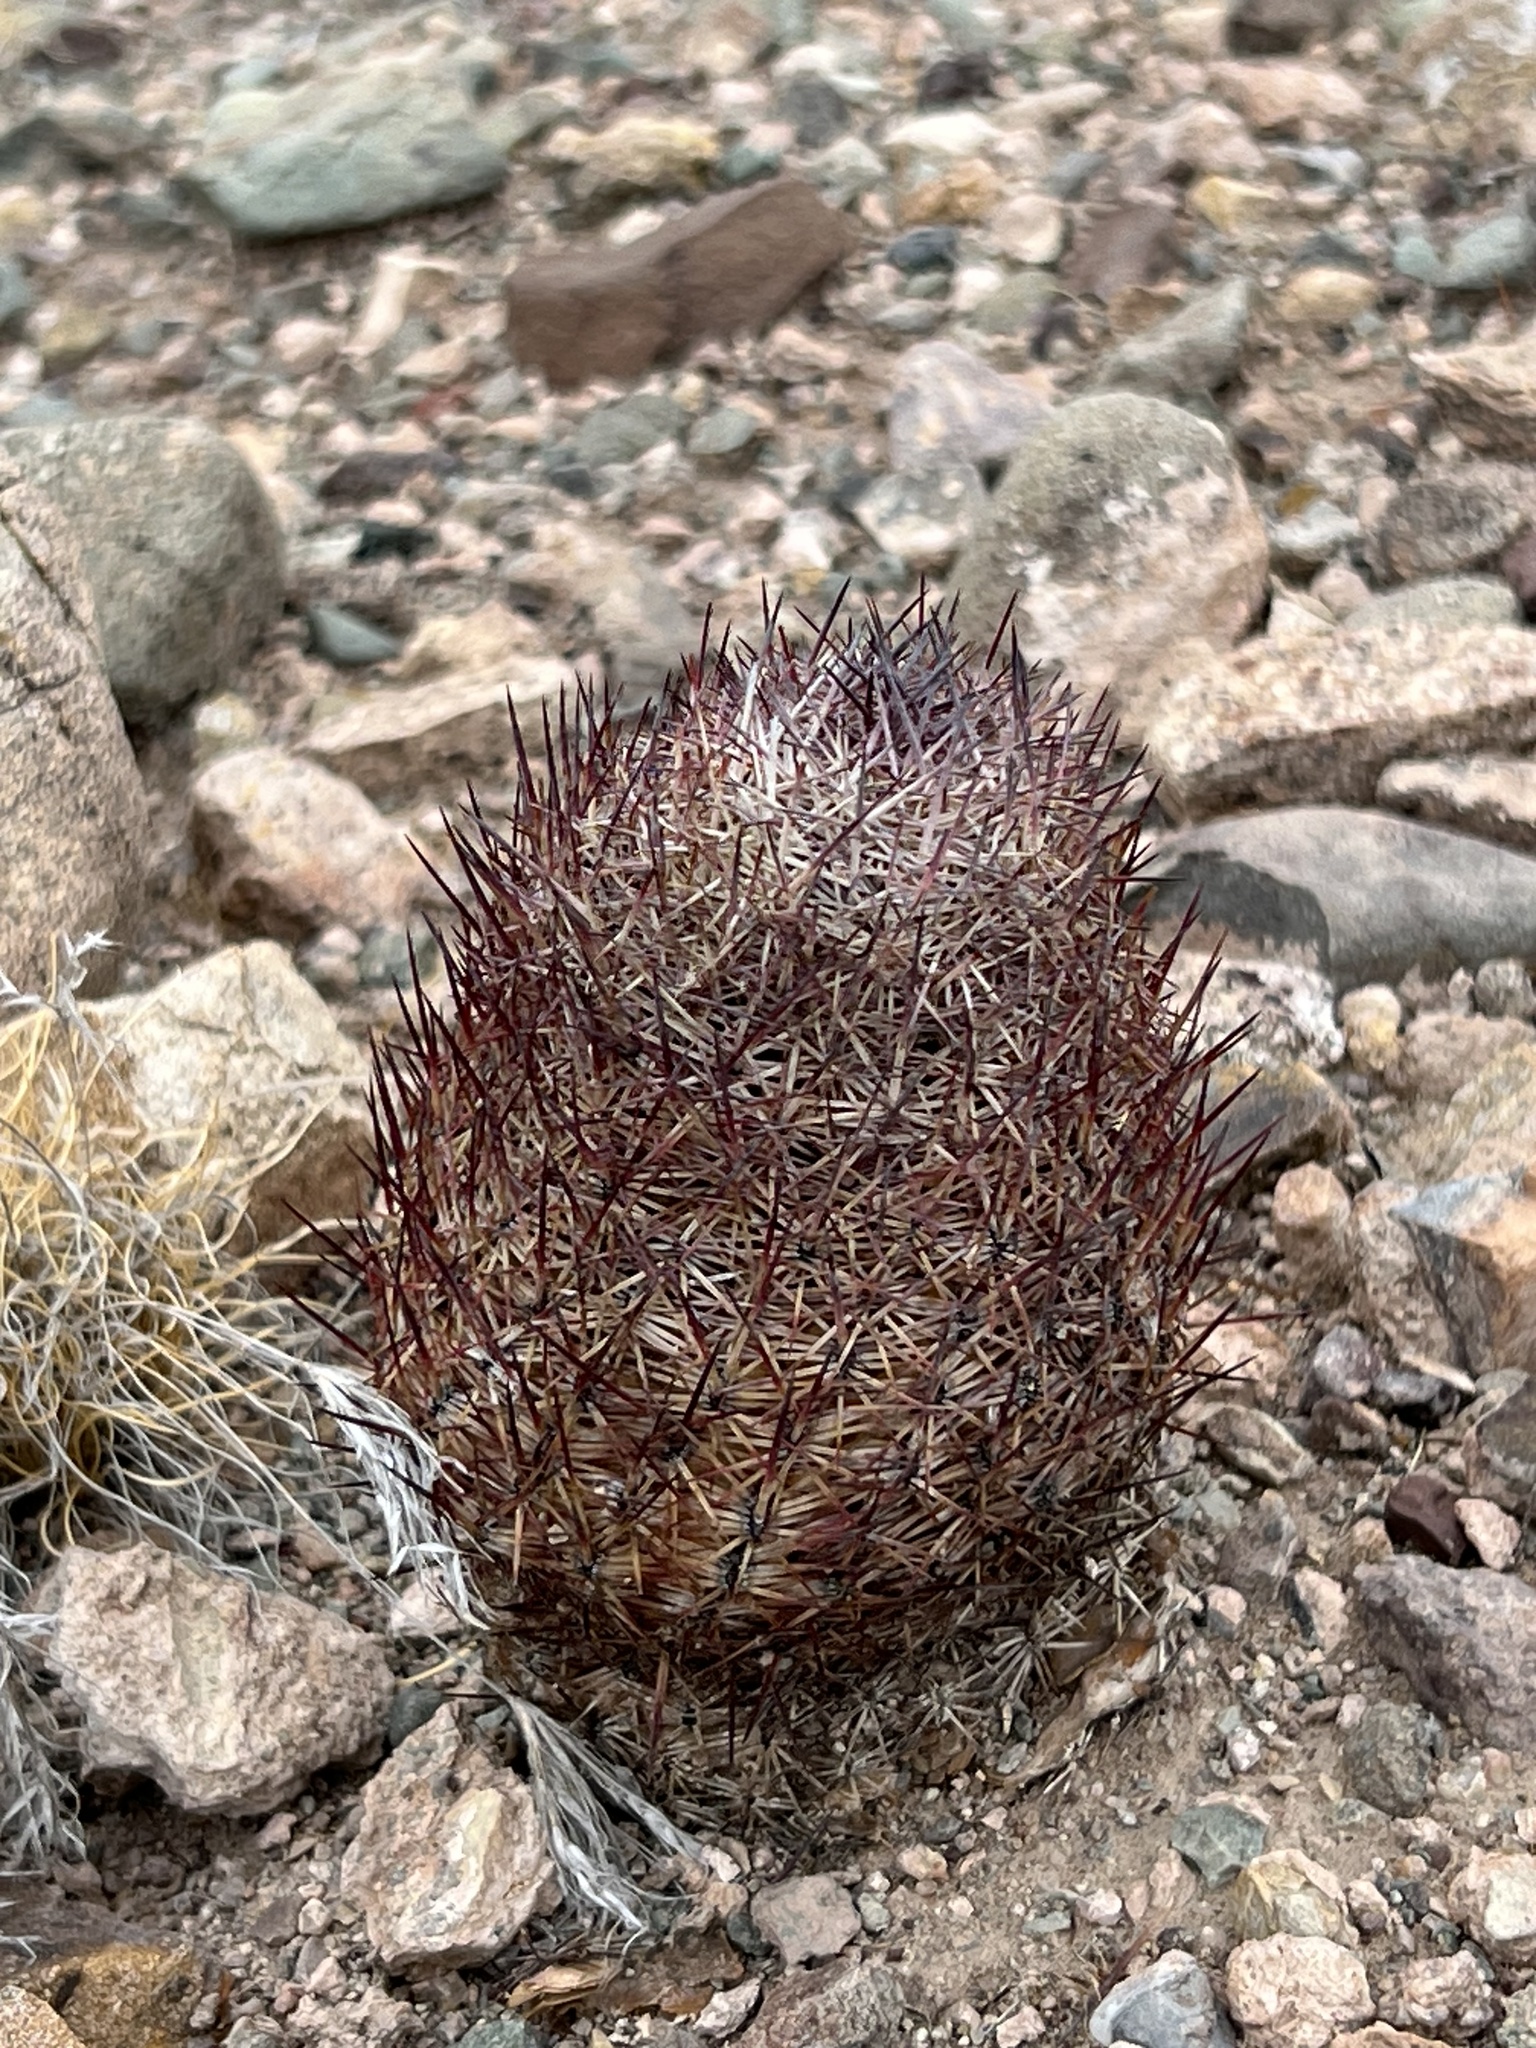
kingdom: Plantae
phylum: Tracheophyta
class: Magnoliopsida
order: Caryophyllales
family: Cactaceae
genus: Sclerocactus
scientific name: Sclerocactus johnsonii
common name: Eight-spine fishhook cactus
